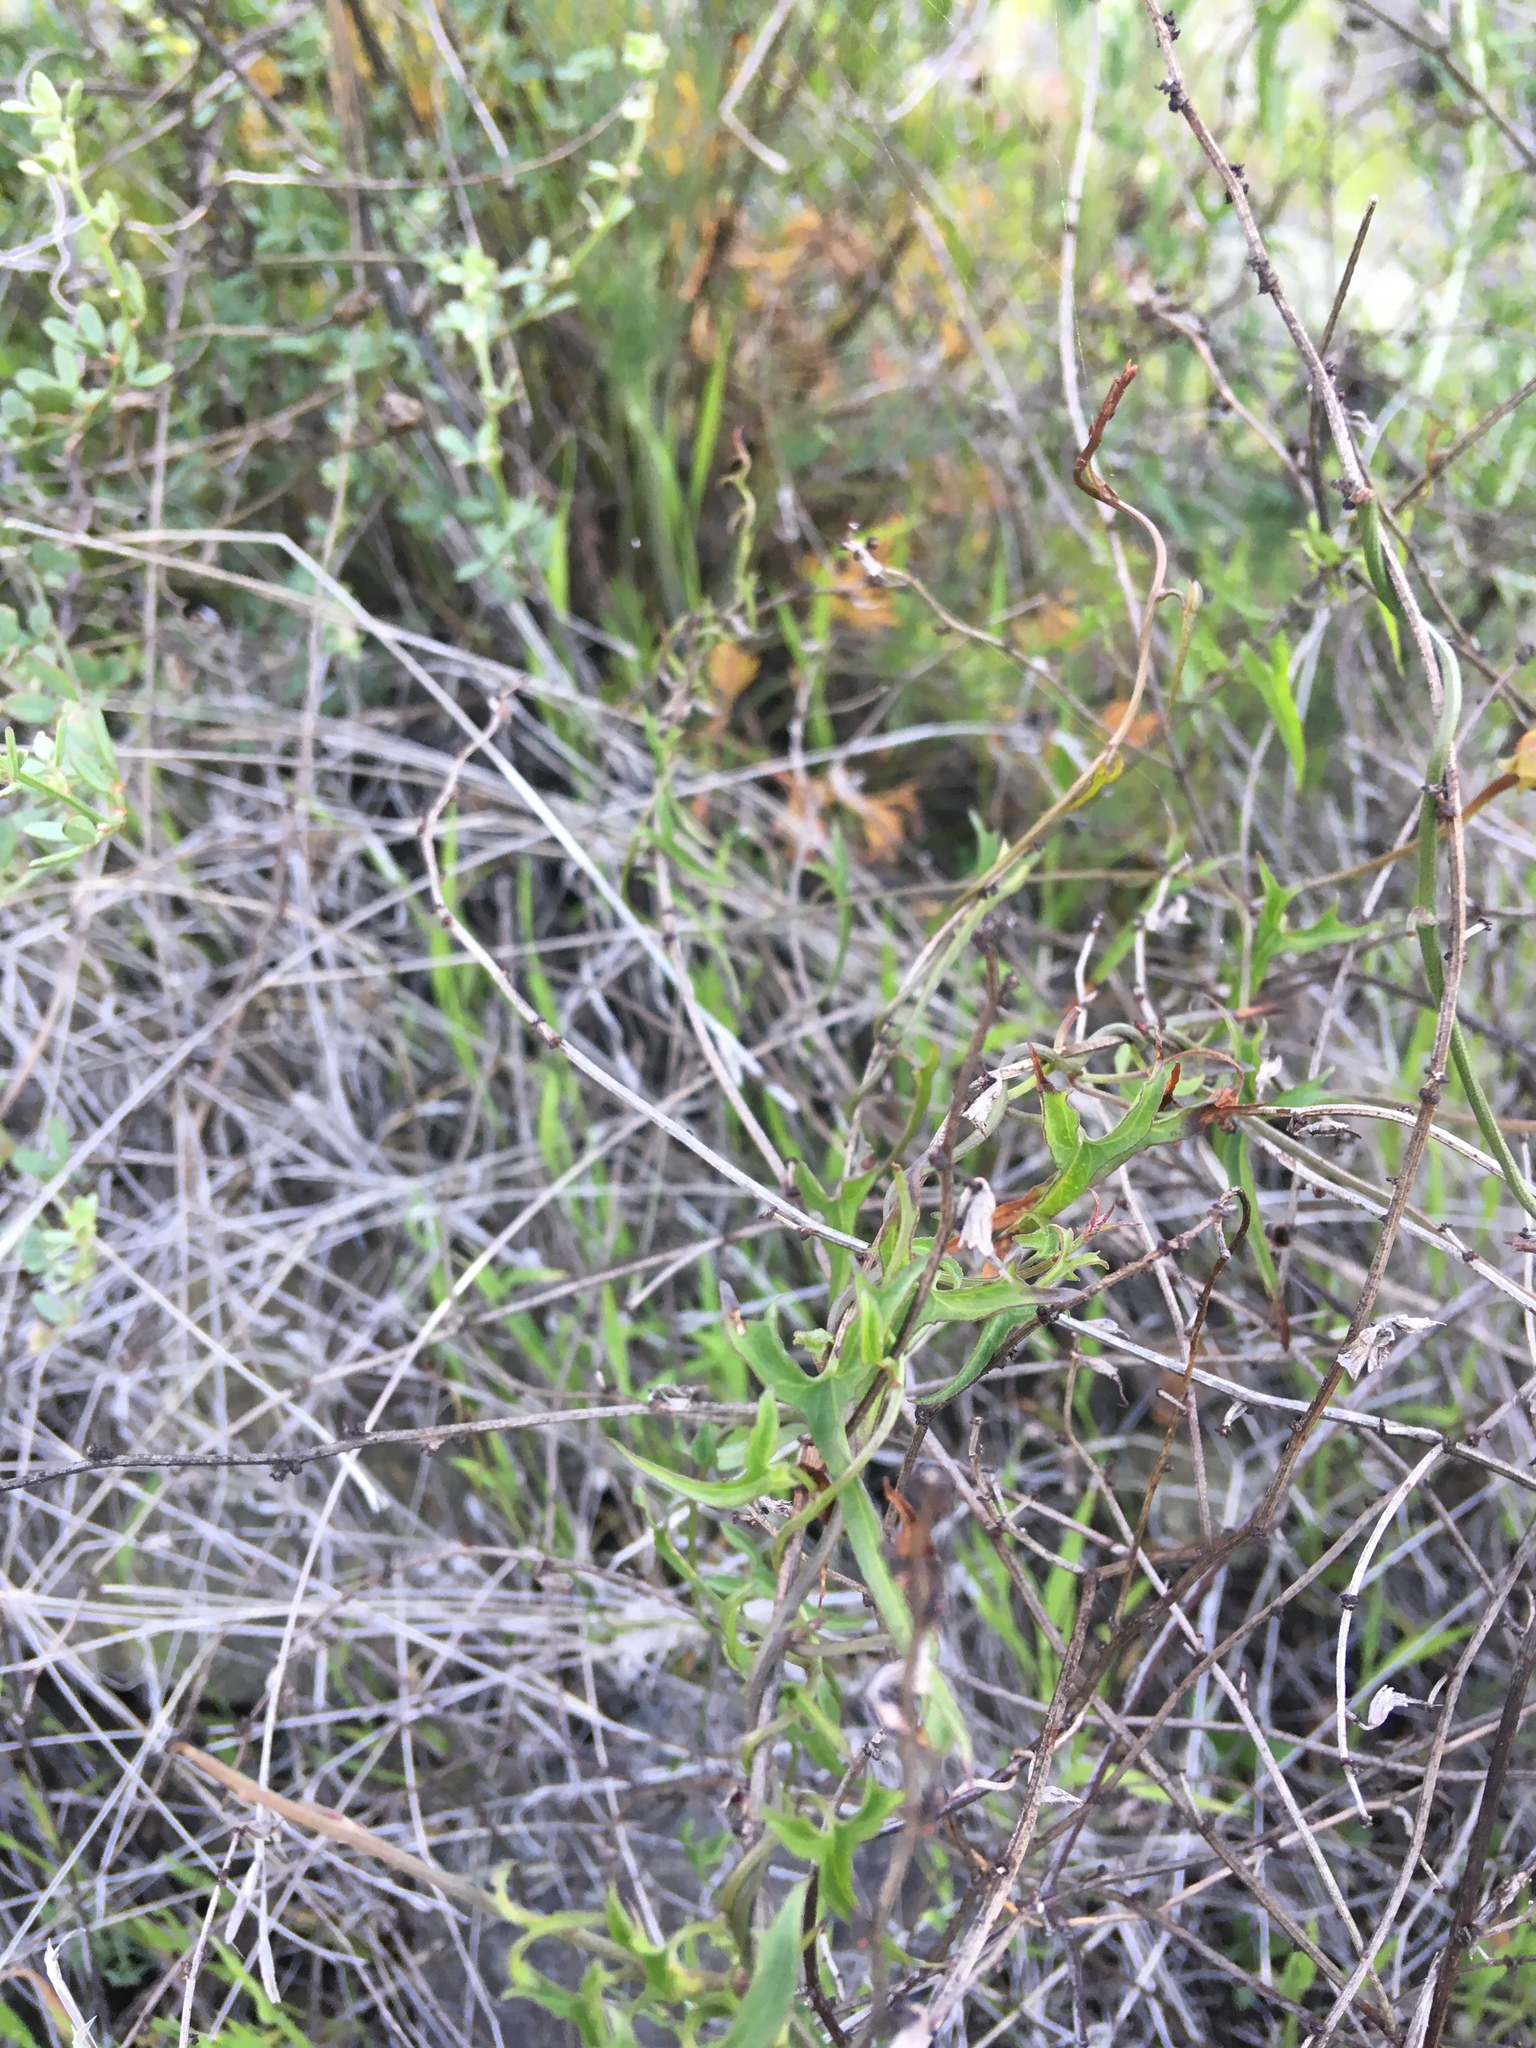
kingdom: Plantae
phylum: Tracheophyta
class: Magnoliopsida
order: Solanales
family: Convolvulaceae
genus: Calystegia
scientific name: Calystegia macrostegia
